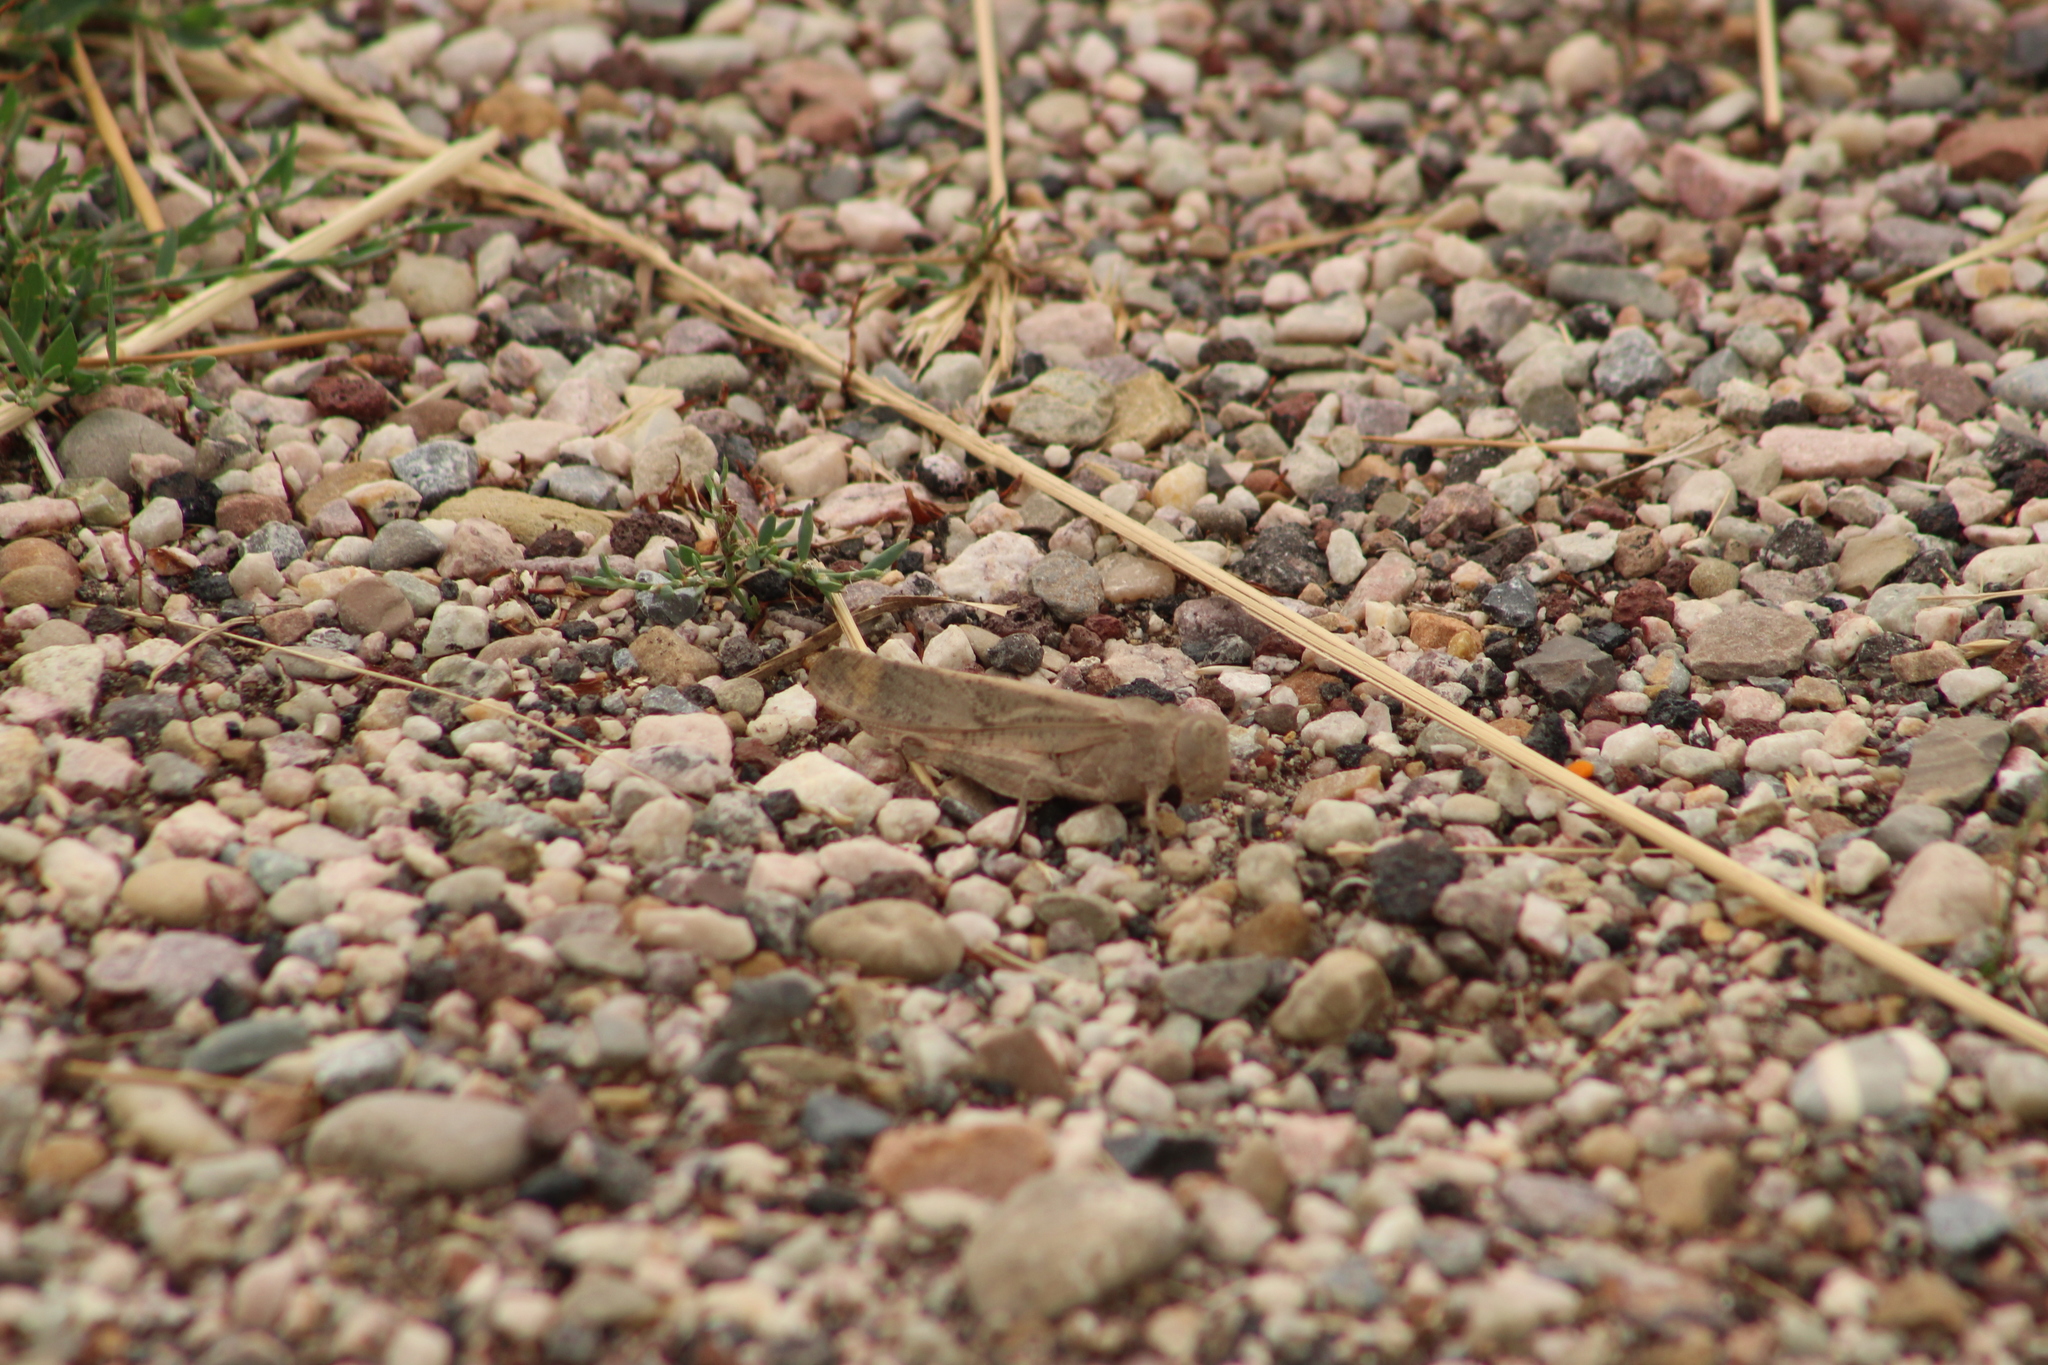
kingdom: Animalia
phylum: Arthropoda
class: Insecta
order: Orthoptera
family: Acrididae
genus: Dissosteira
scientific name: Dissosteira carolina
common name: Carolina grasshopper
